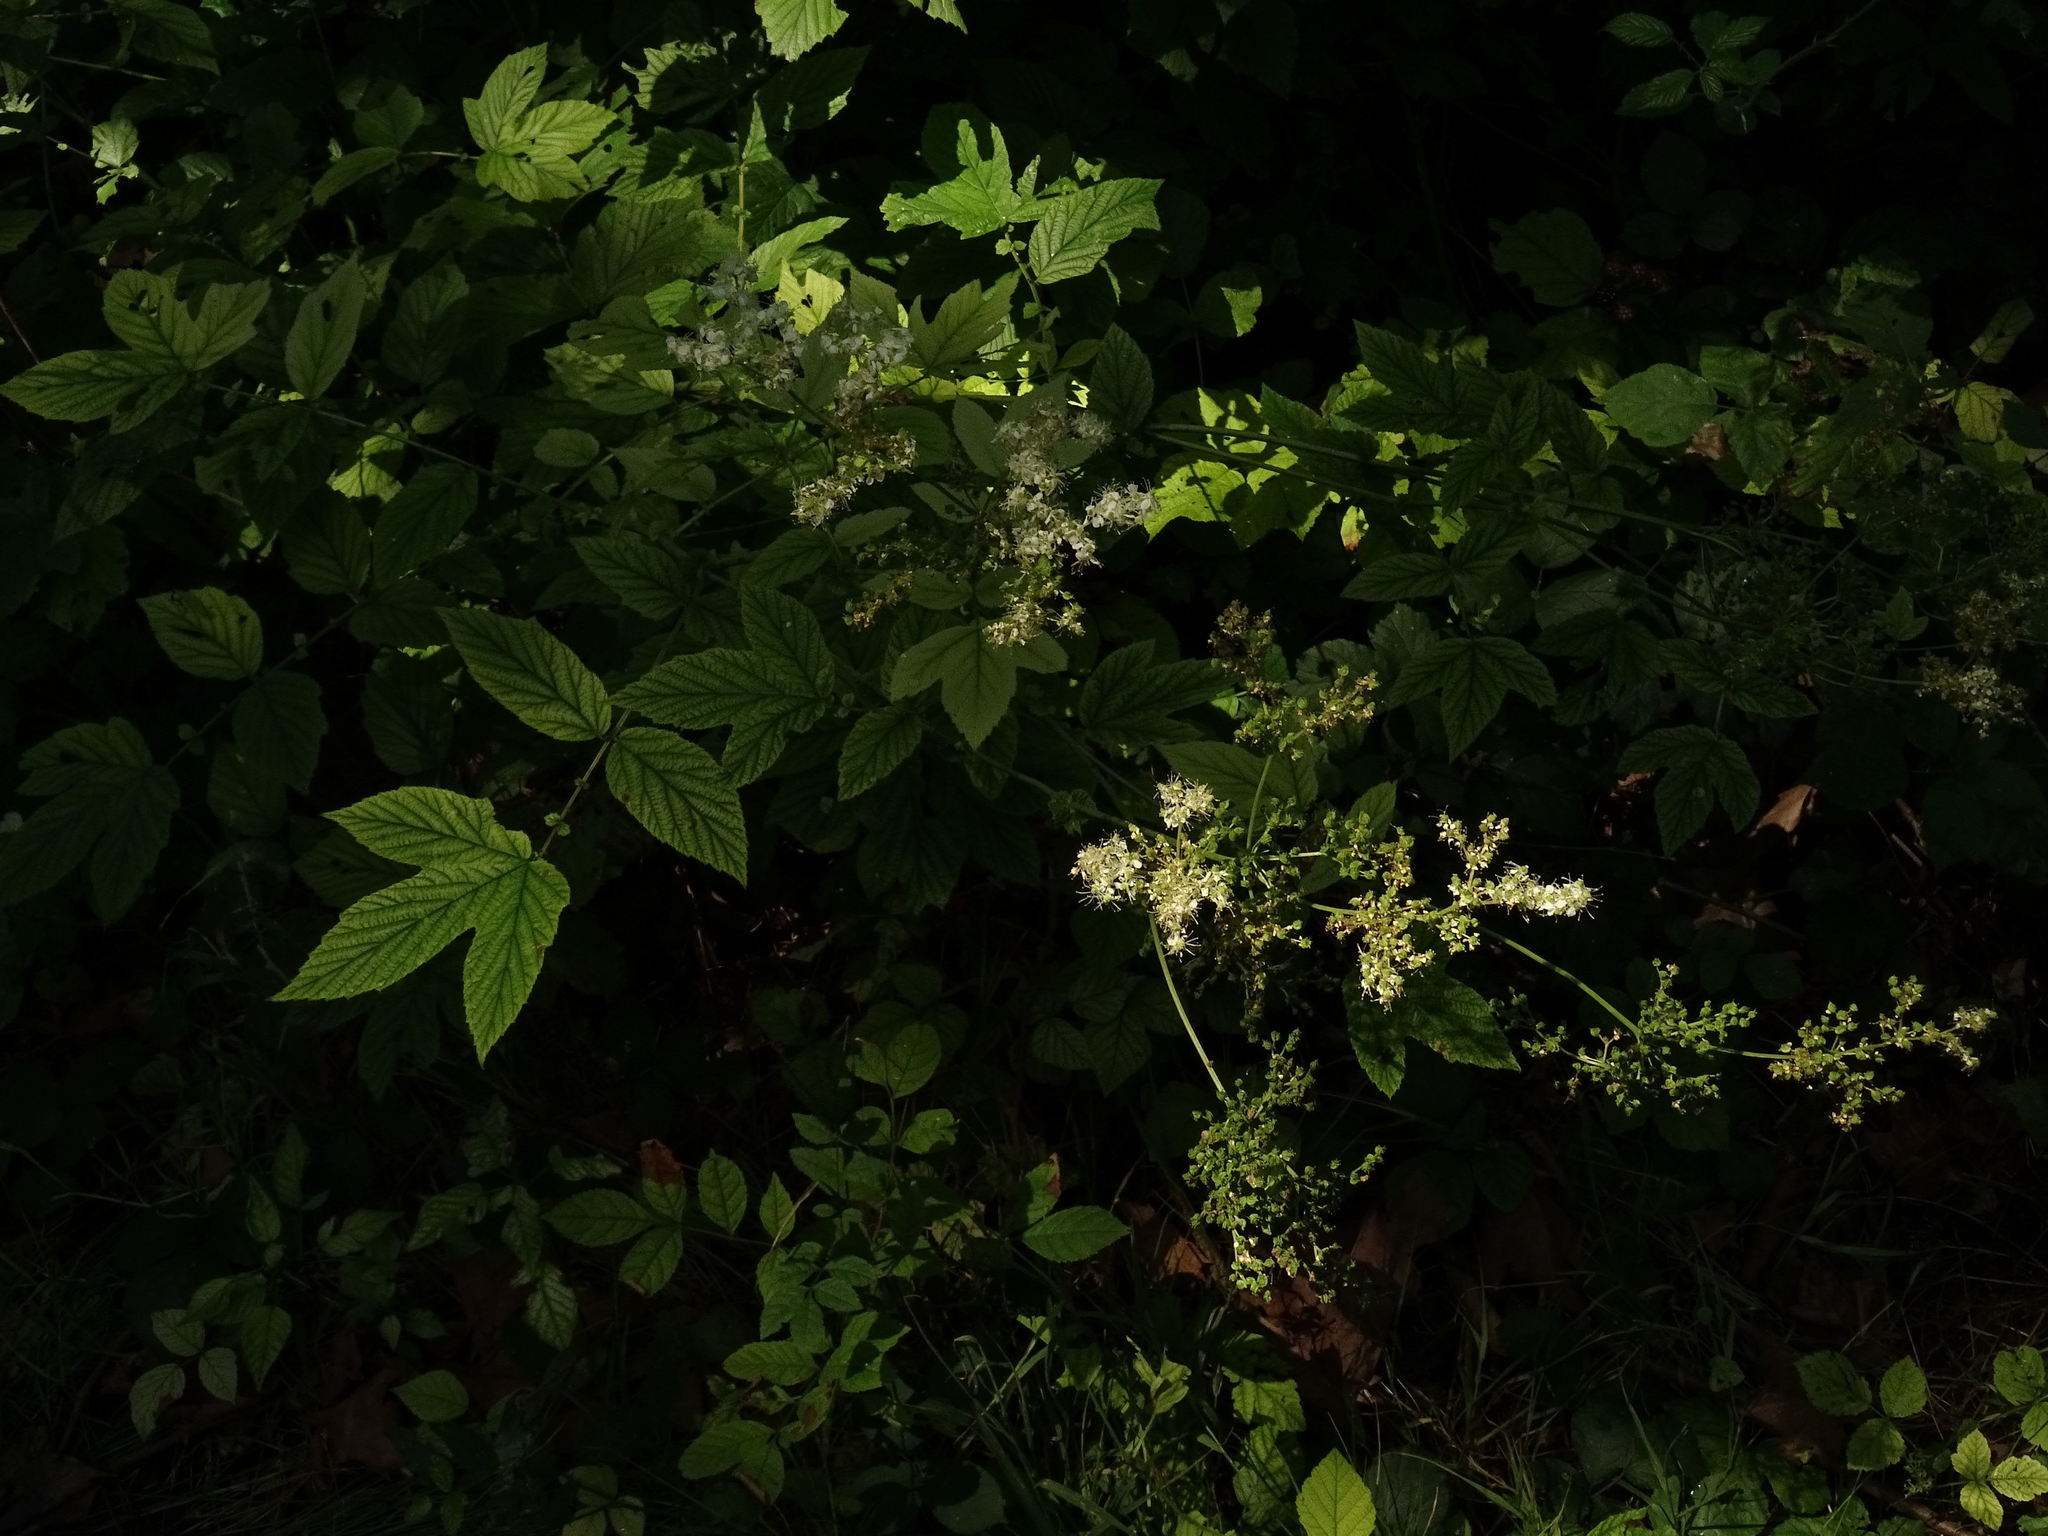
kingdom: Plantae
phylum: Tracheophyta
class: Magnoliopsida
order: Rosales
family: Rosaceae
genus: Filipendula
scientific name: Filipendula ulmaria
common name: Meadowsweet
